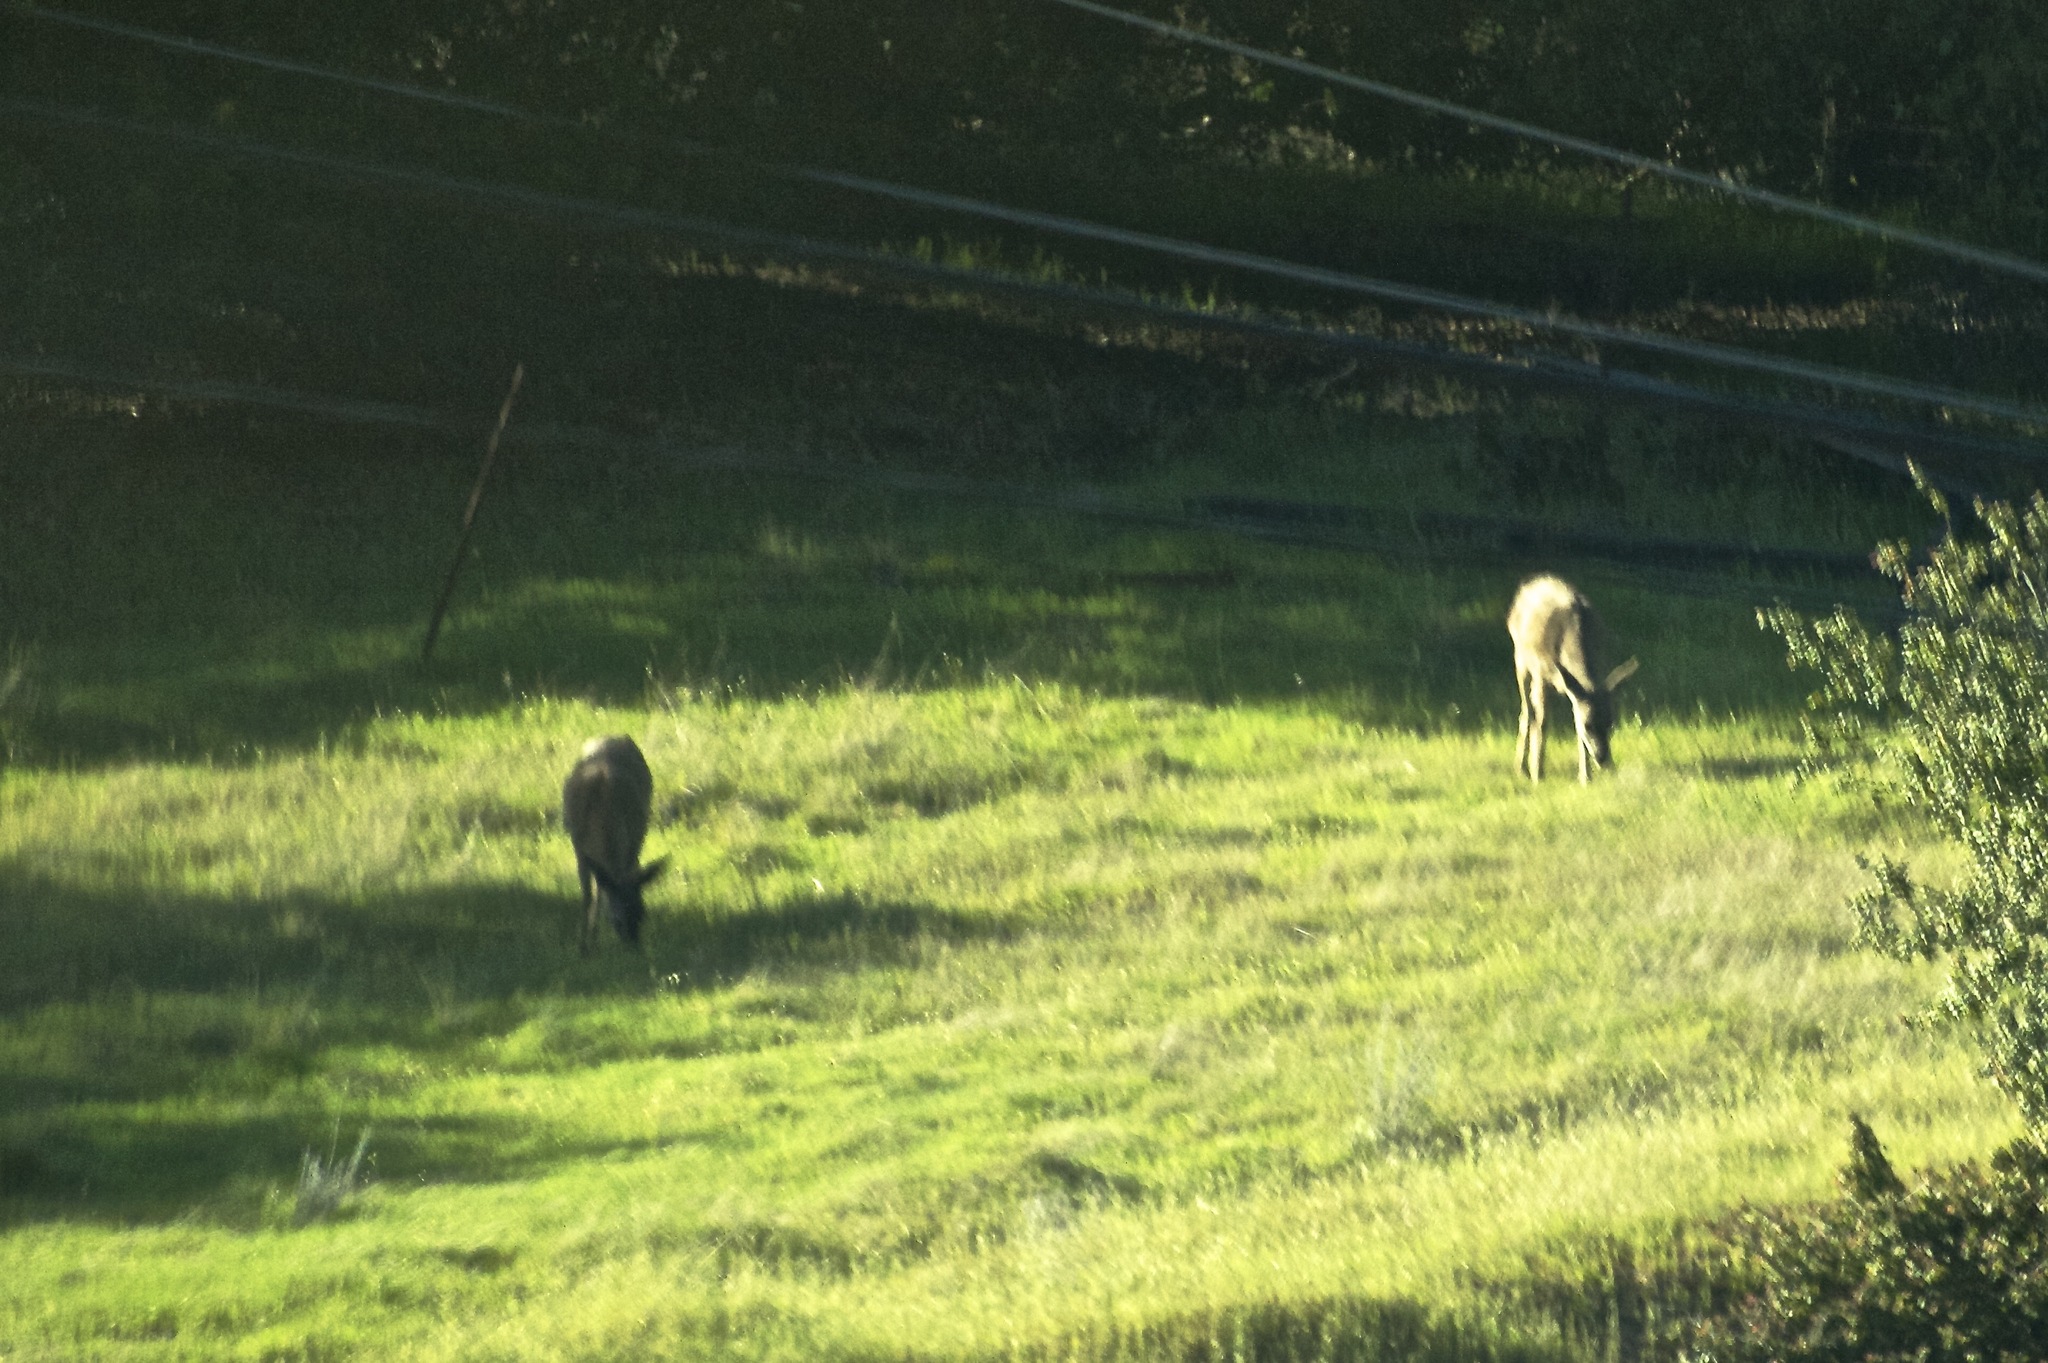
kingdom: Animalia
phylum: Chordata
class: Mammalia
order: Artiodactyla
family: Cervidae
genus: Odocoileus
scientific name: Odocoileus hemionus
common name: Mule deer
